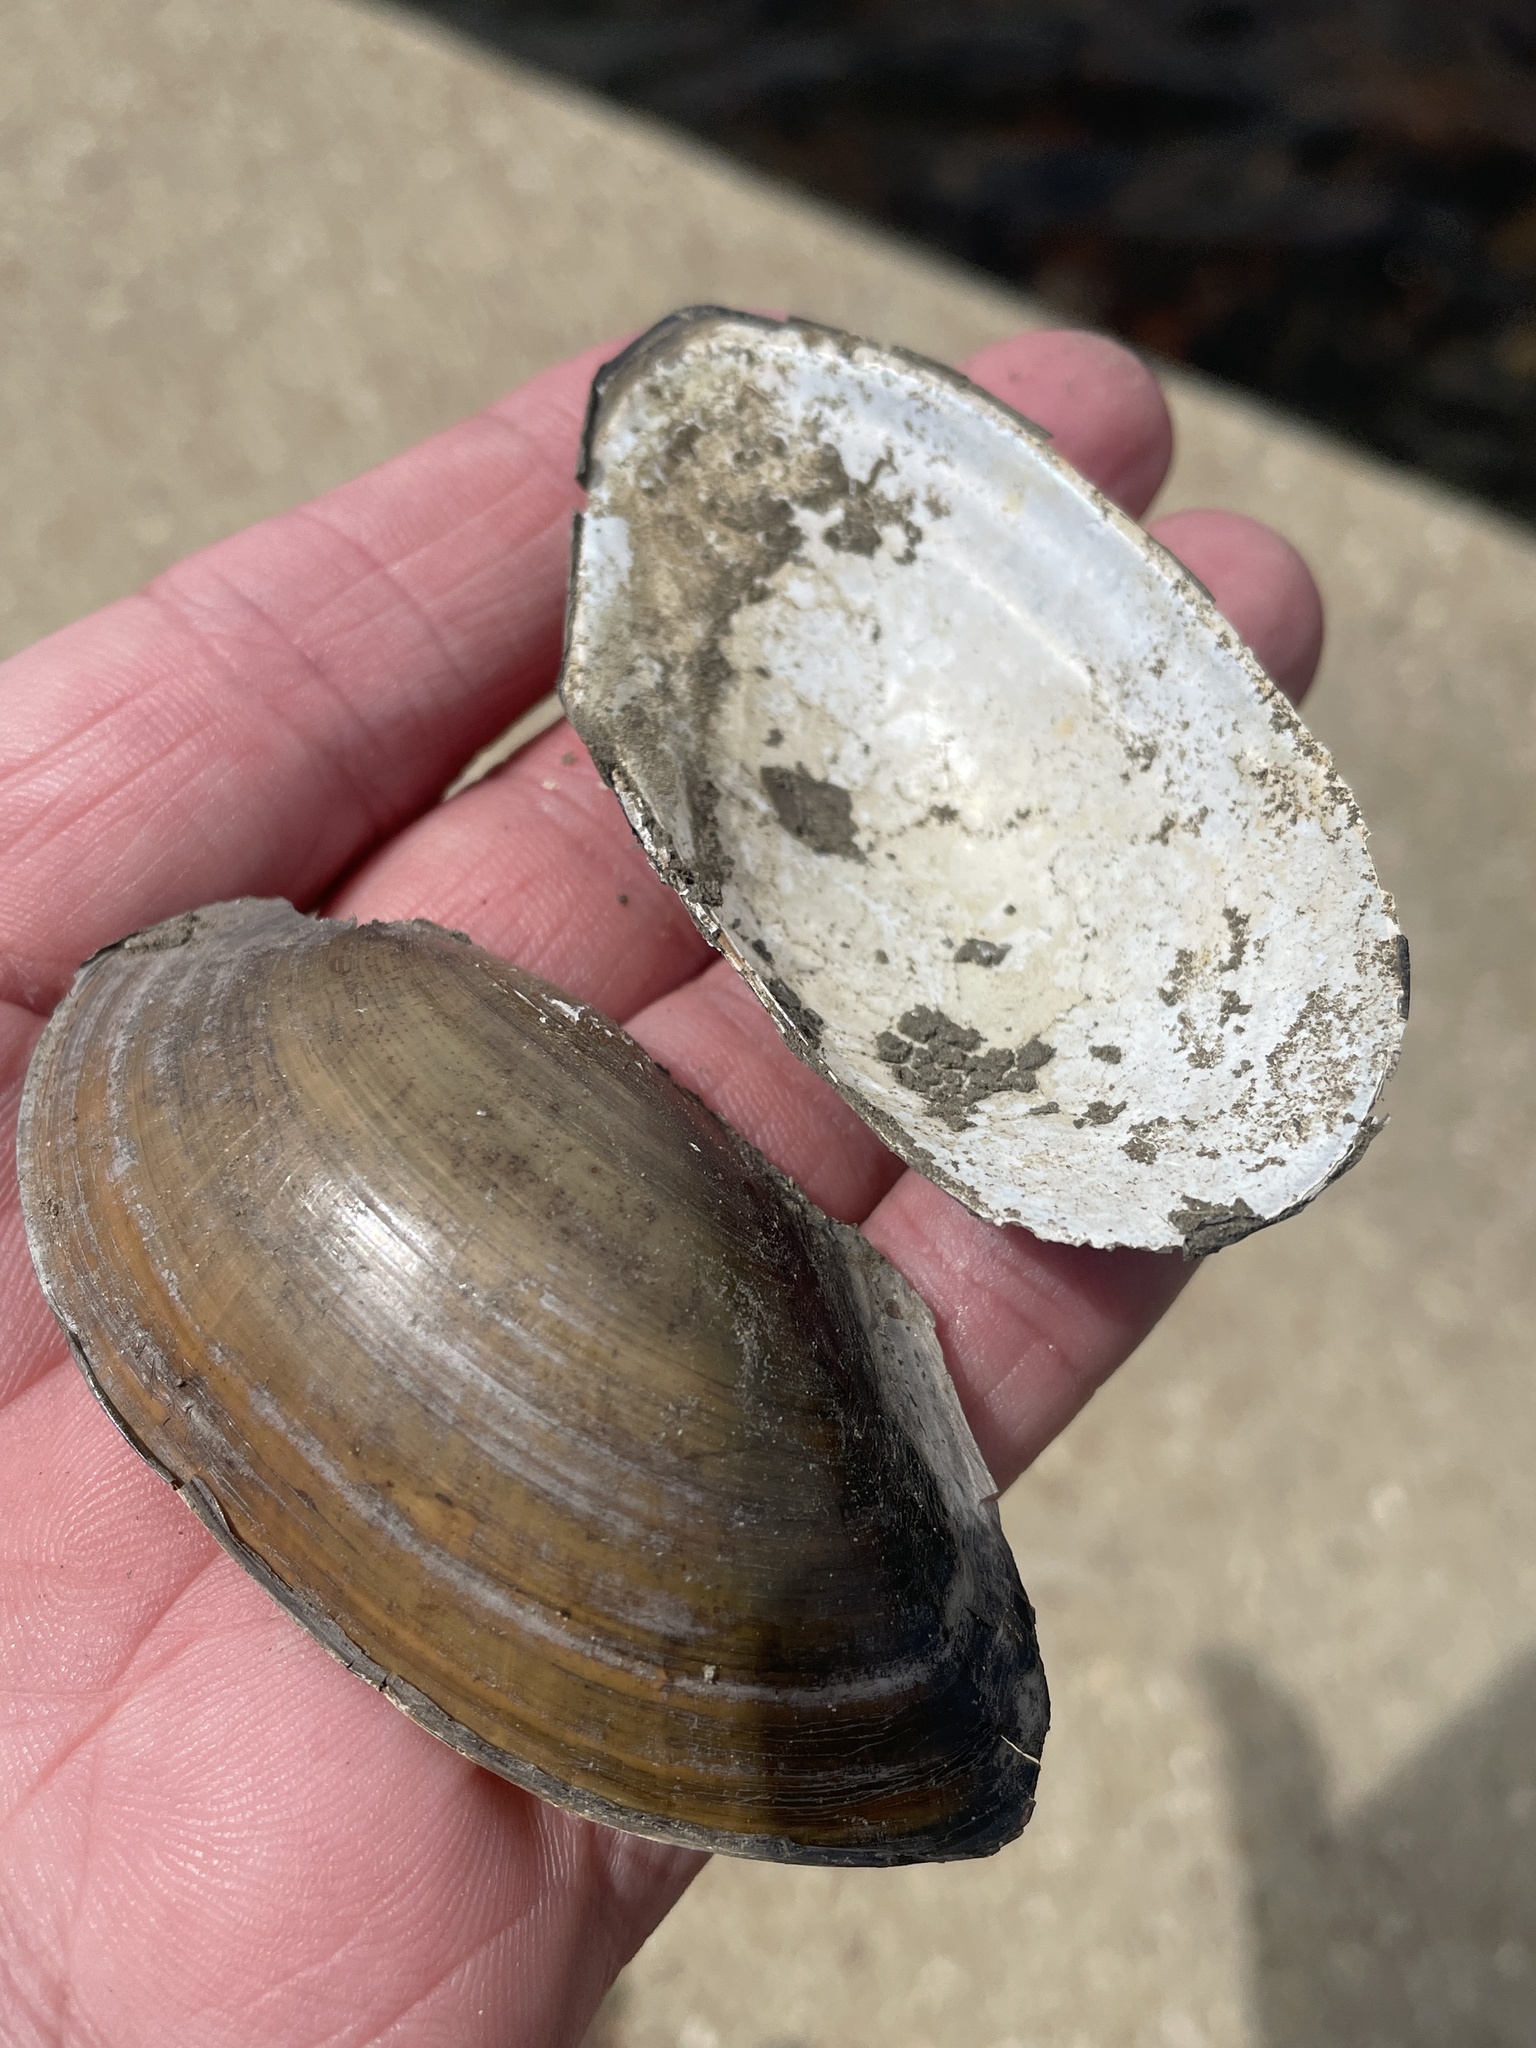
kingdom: Animalia
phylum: Mollusca
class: Bivalvia
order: Unionida
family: Unionidae
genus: Utterbackia
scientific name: Utterbackia imbecillis
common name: Paper pondshell
